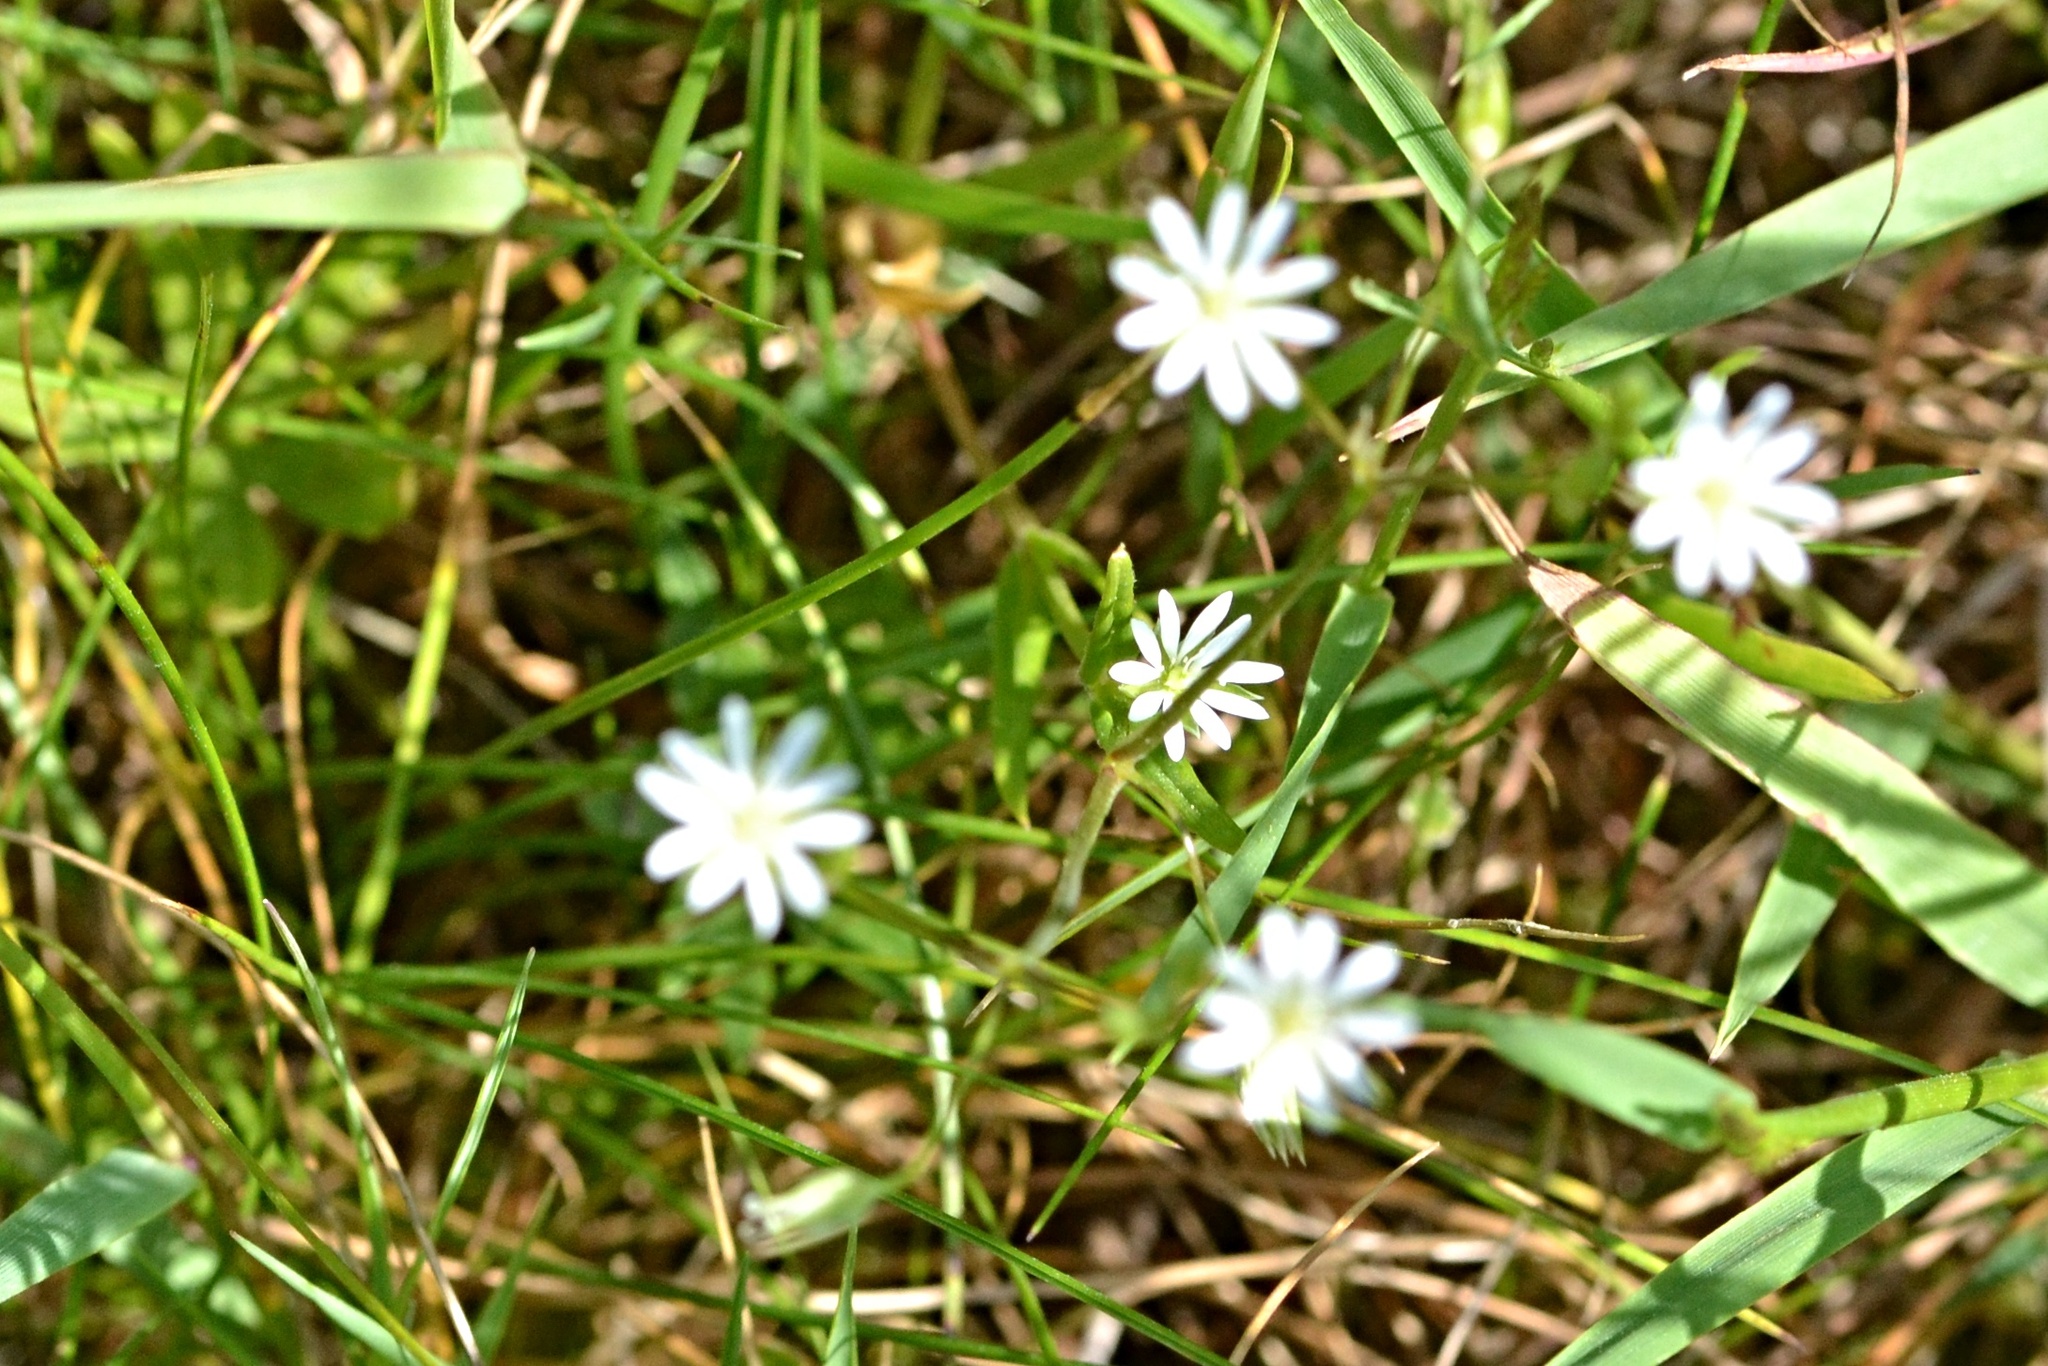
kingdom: Plantae
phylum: Tracheophyta
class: Magnoliopsida
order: Caryophyllales
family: Caryophyllaceae
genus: Stellaria
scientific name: Stellaria graminea
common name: Grass-like starwort
